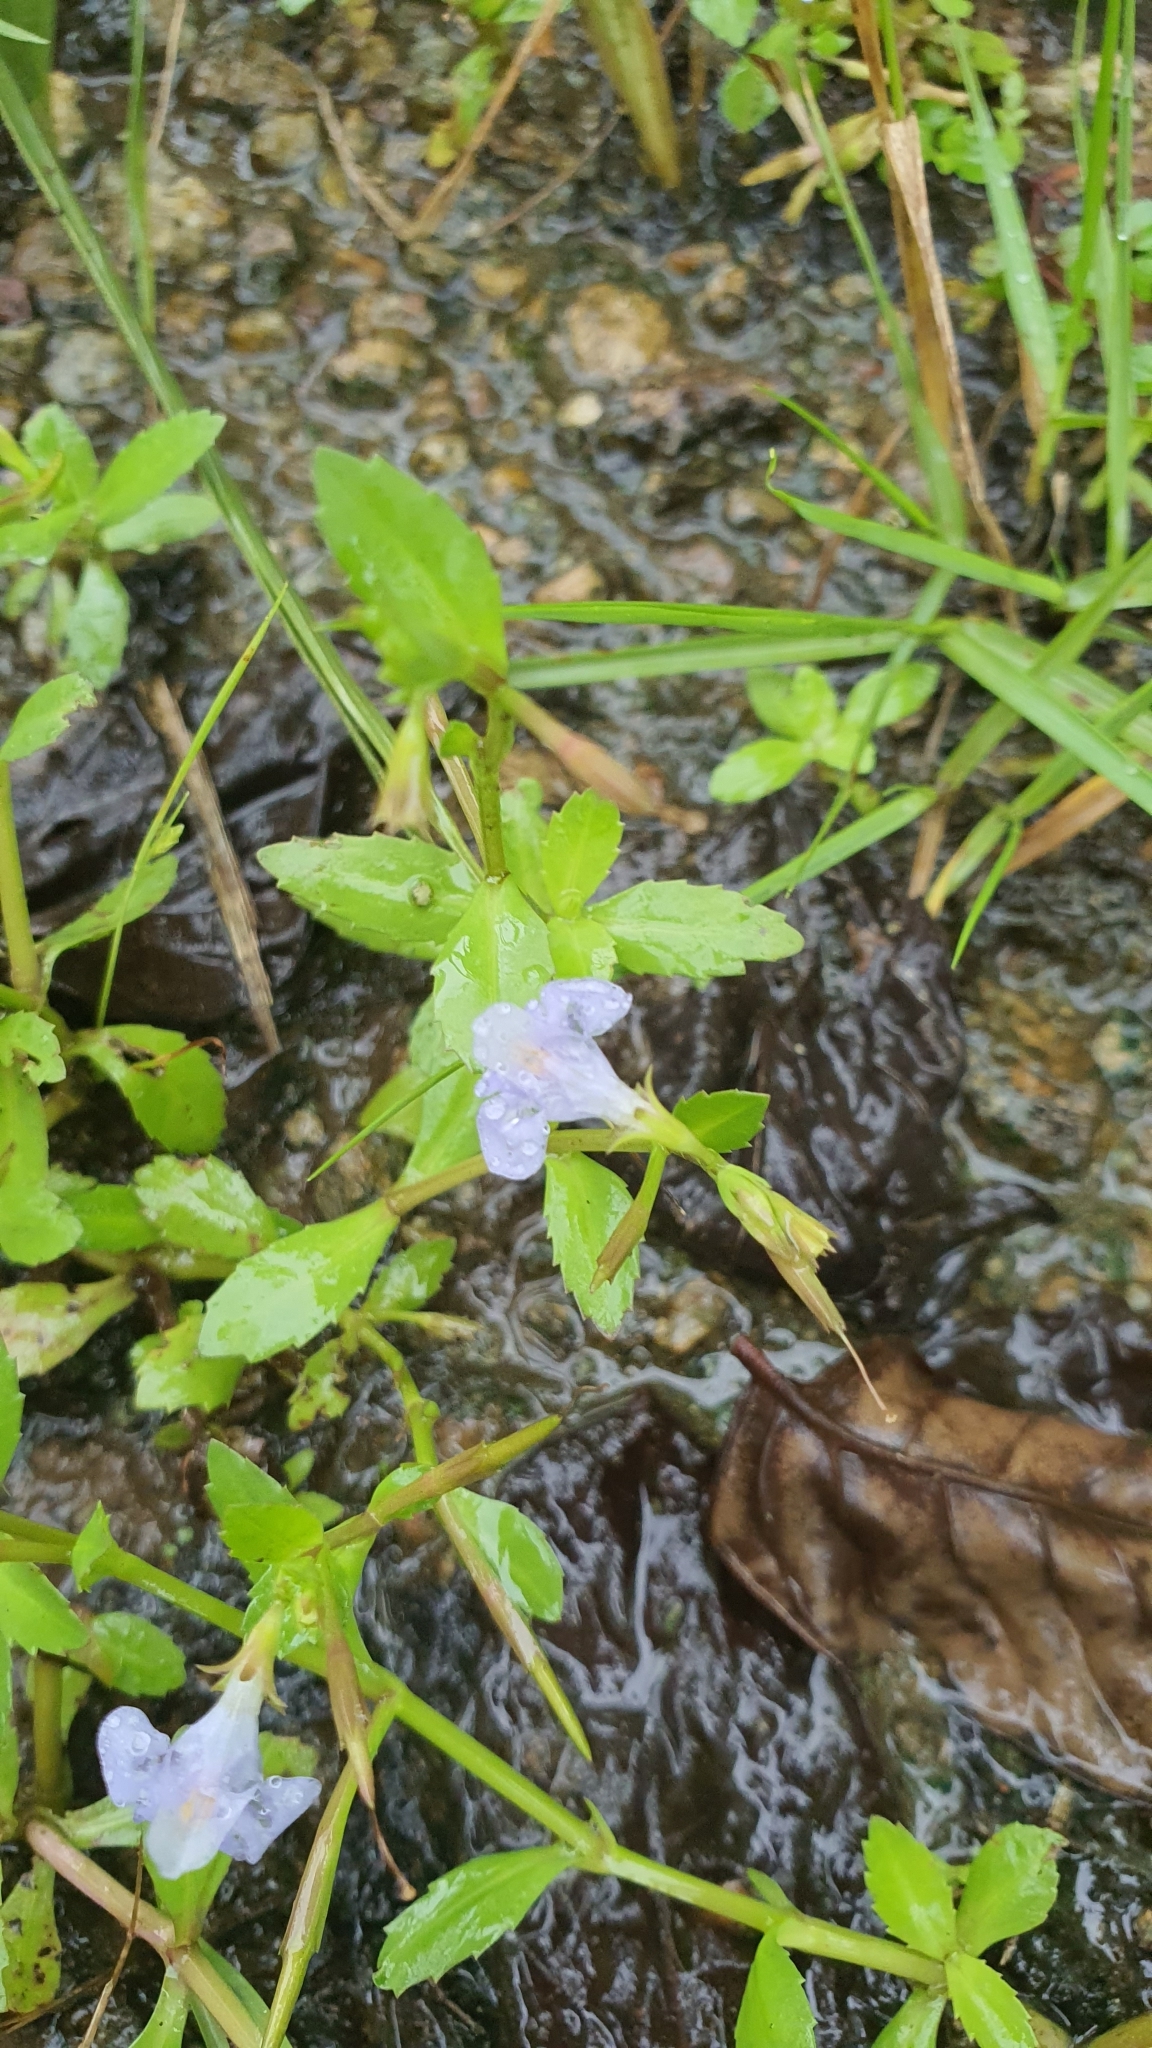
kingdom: Plantae
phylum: Tracheophyta
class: Magnoliopsida
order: Lamiales
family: Linderniaceae
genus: Bonnaya
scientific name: Bonnaya antipoda
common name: Sparrow false pimpernel
